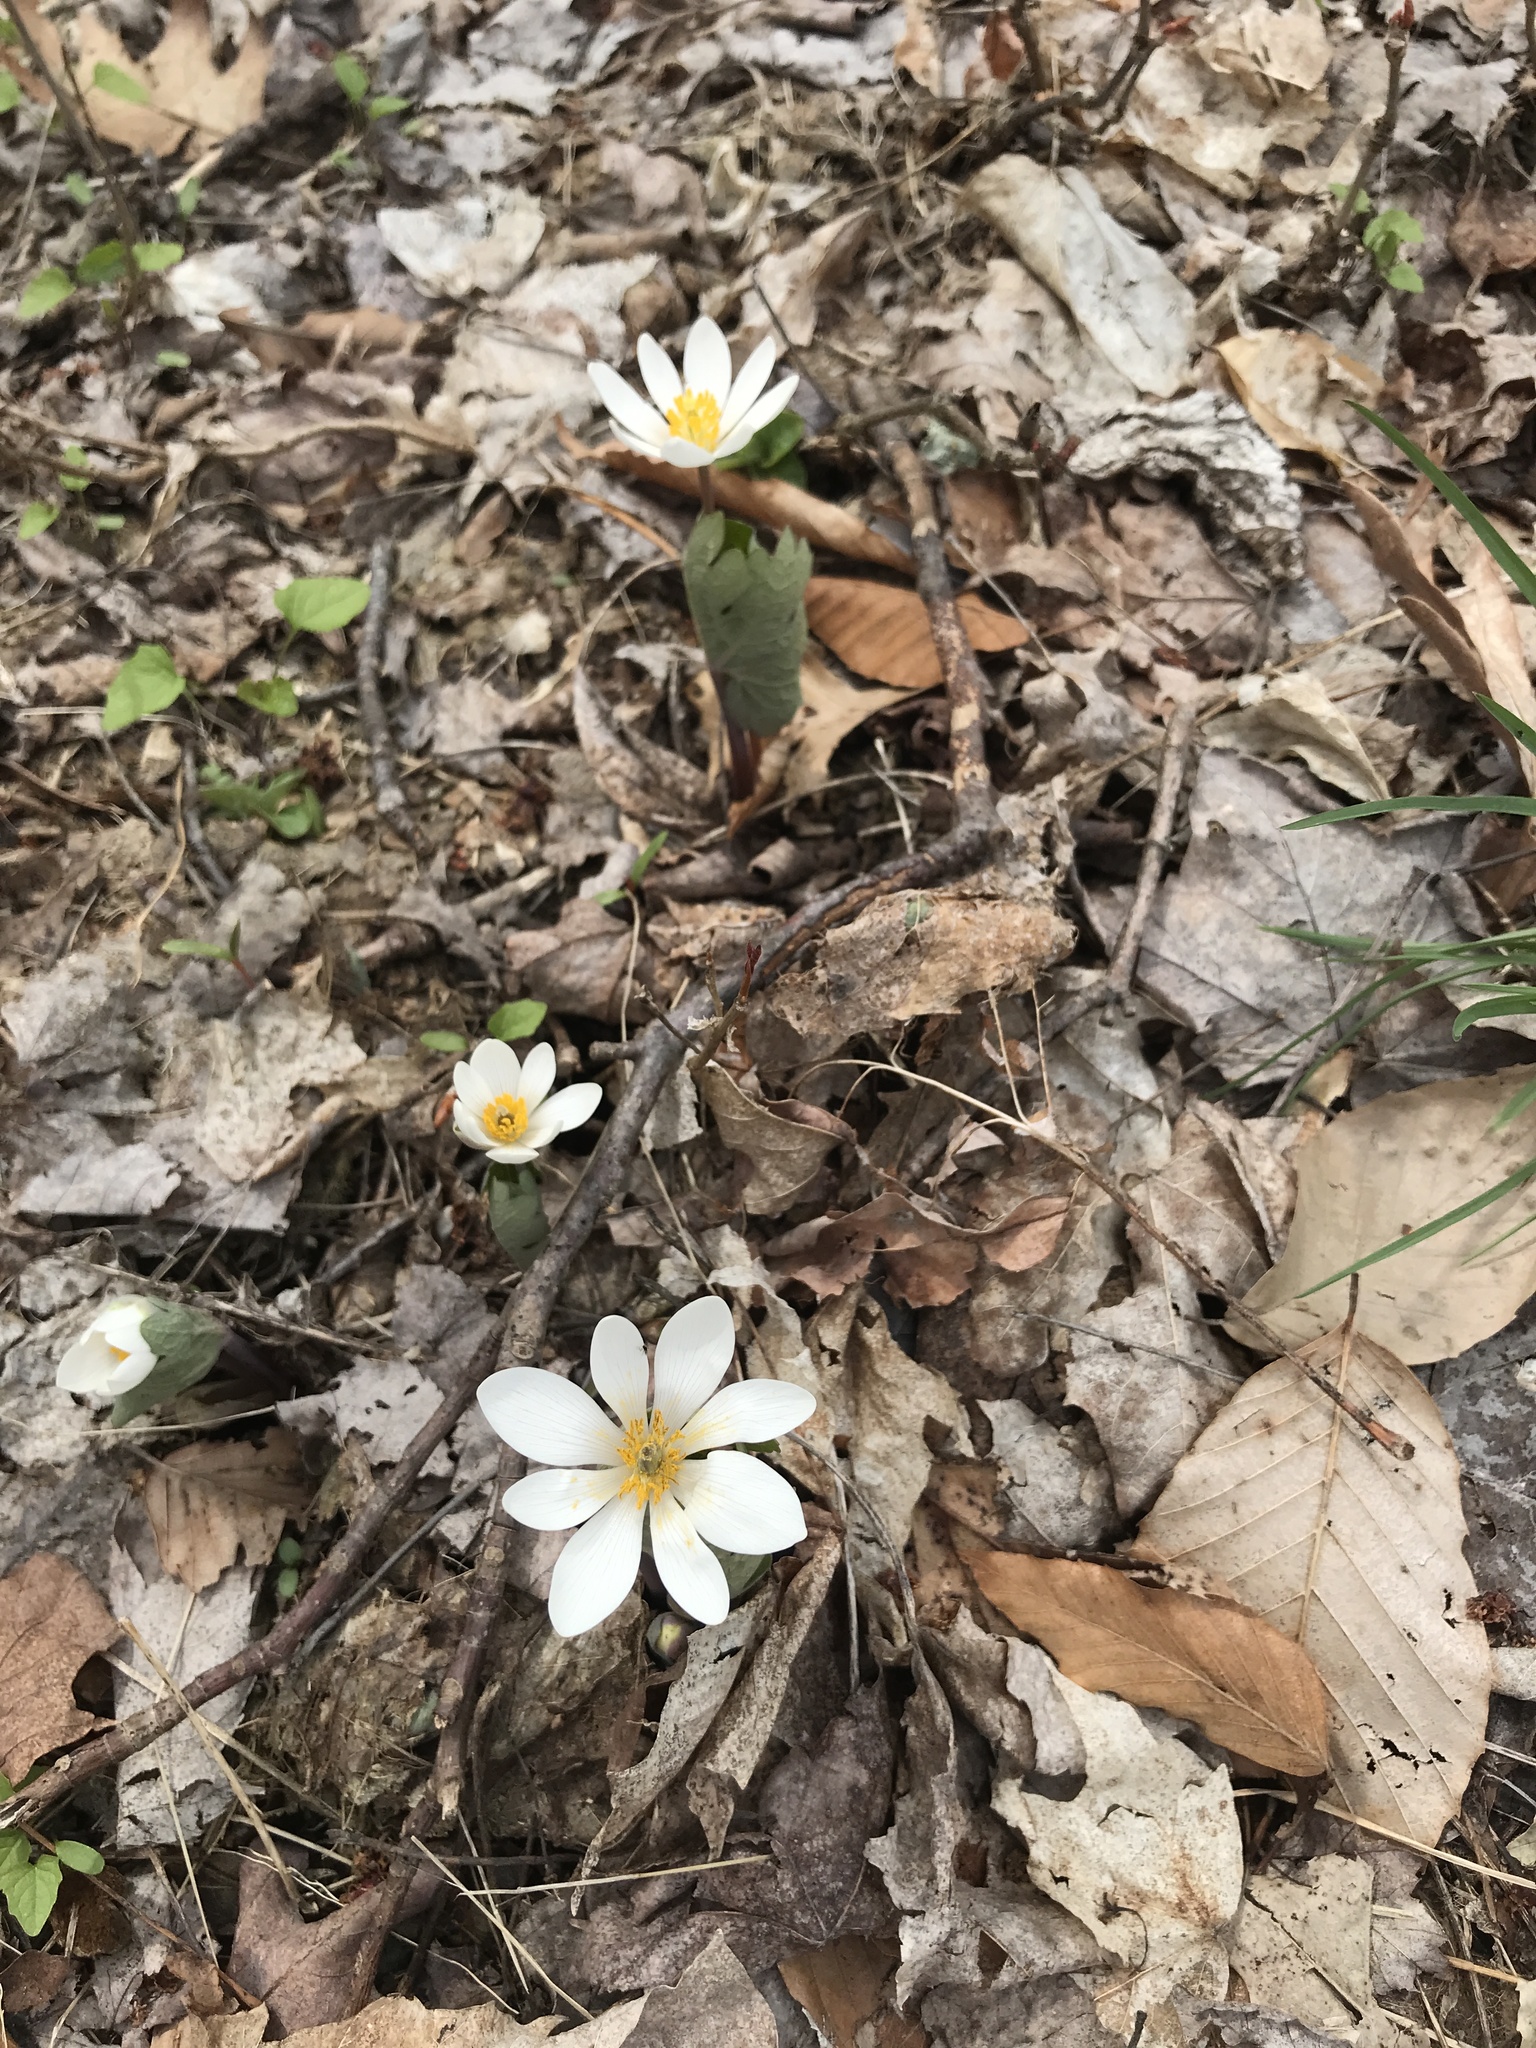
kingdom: Plantae
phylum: Tracheophyta
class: Magnoliopsida
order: Ranunculales
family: Papaveraceae
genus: Sanguinaria
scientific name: Sanguinaria canadensis
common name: Bloodroot
